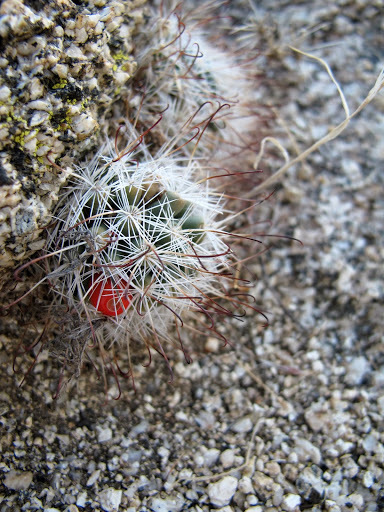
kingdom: Plantae
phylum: Tracheophyta
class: Magnoliopsida
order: Caryophyllales
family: Cactaceae
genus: Cochemiea
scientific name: Cochemiea tetrancistra
